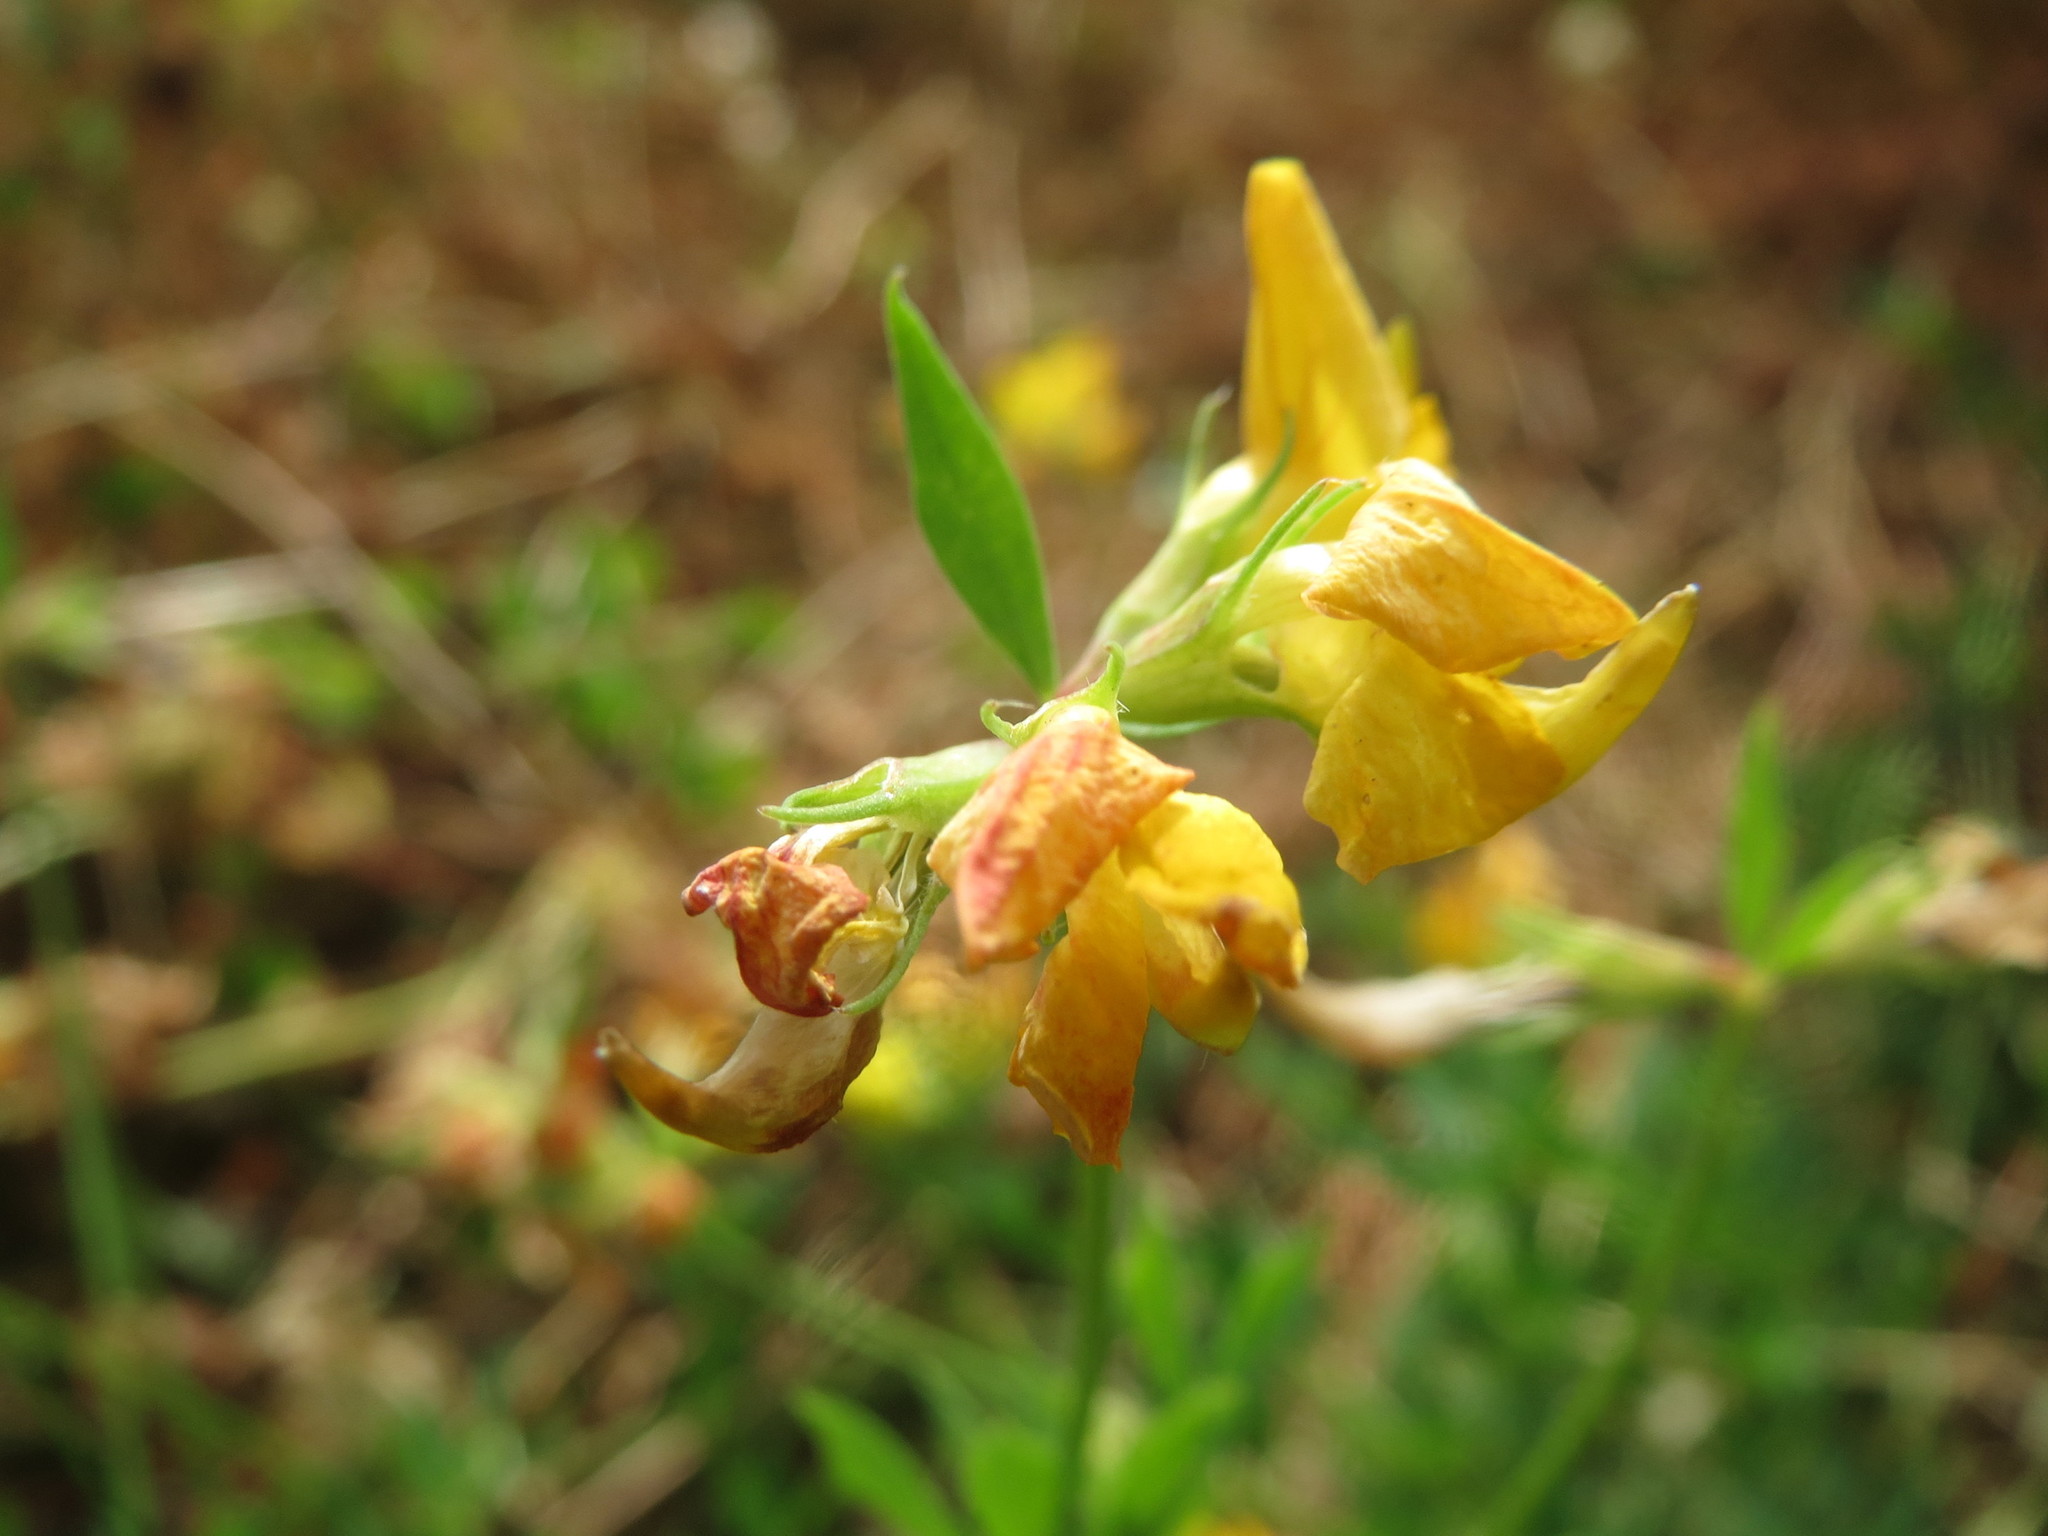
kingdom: Plantae
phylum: Tracheophyta
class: Magnoliopsida
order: Fabales
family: Fabaceae
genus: Lotus
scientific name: Lotus corniculatus
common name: Common bird's-foot-trefoil
